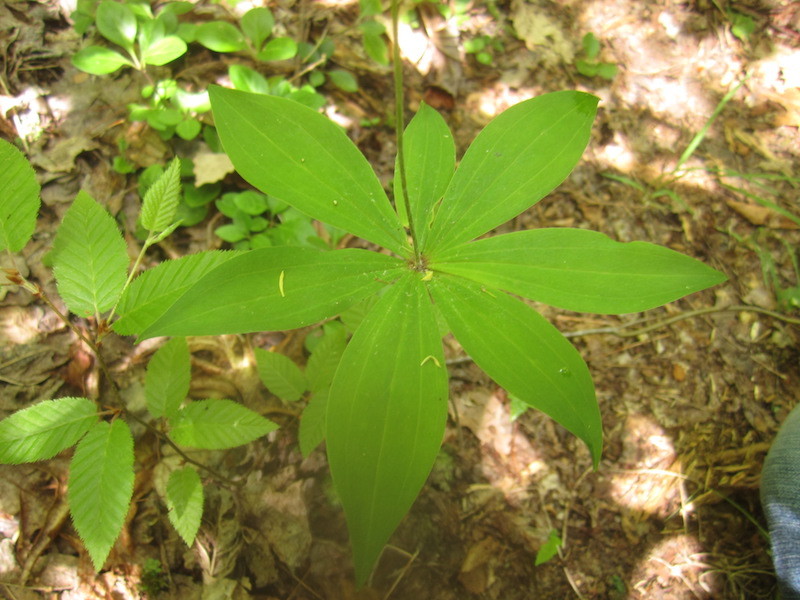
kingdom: Plantae
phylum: Tracheophyta
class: Liliopsida
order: Liliales
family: Liliaceae
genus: Medeola
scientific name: Medeola virginiana
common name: Indian cucumber-root
